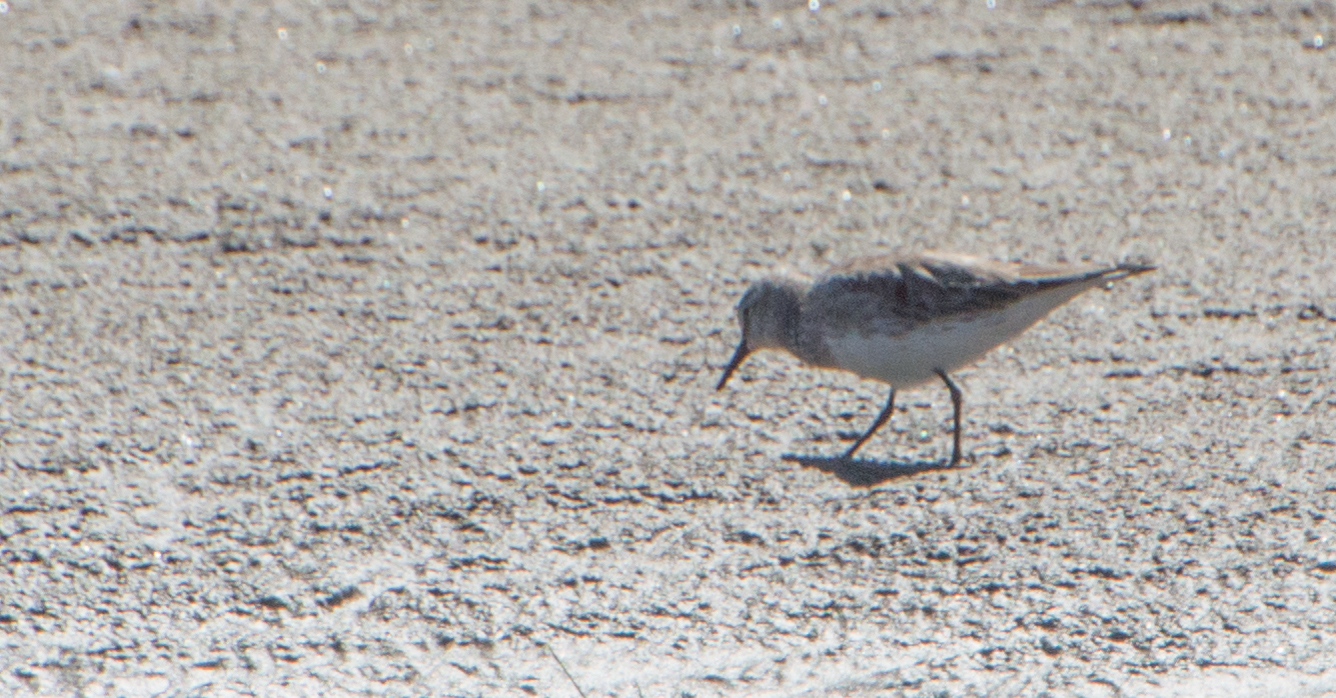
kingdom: Animalia
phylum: Chordata
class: Aves
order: Charadriiformes
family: Scolopacidae
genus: Calidris
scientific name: Calidris fuscicollis
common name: White-rumped sandpiper
